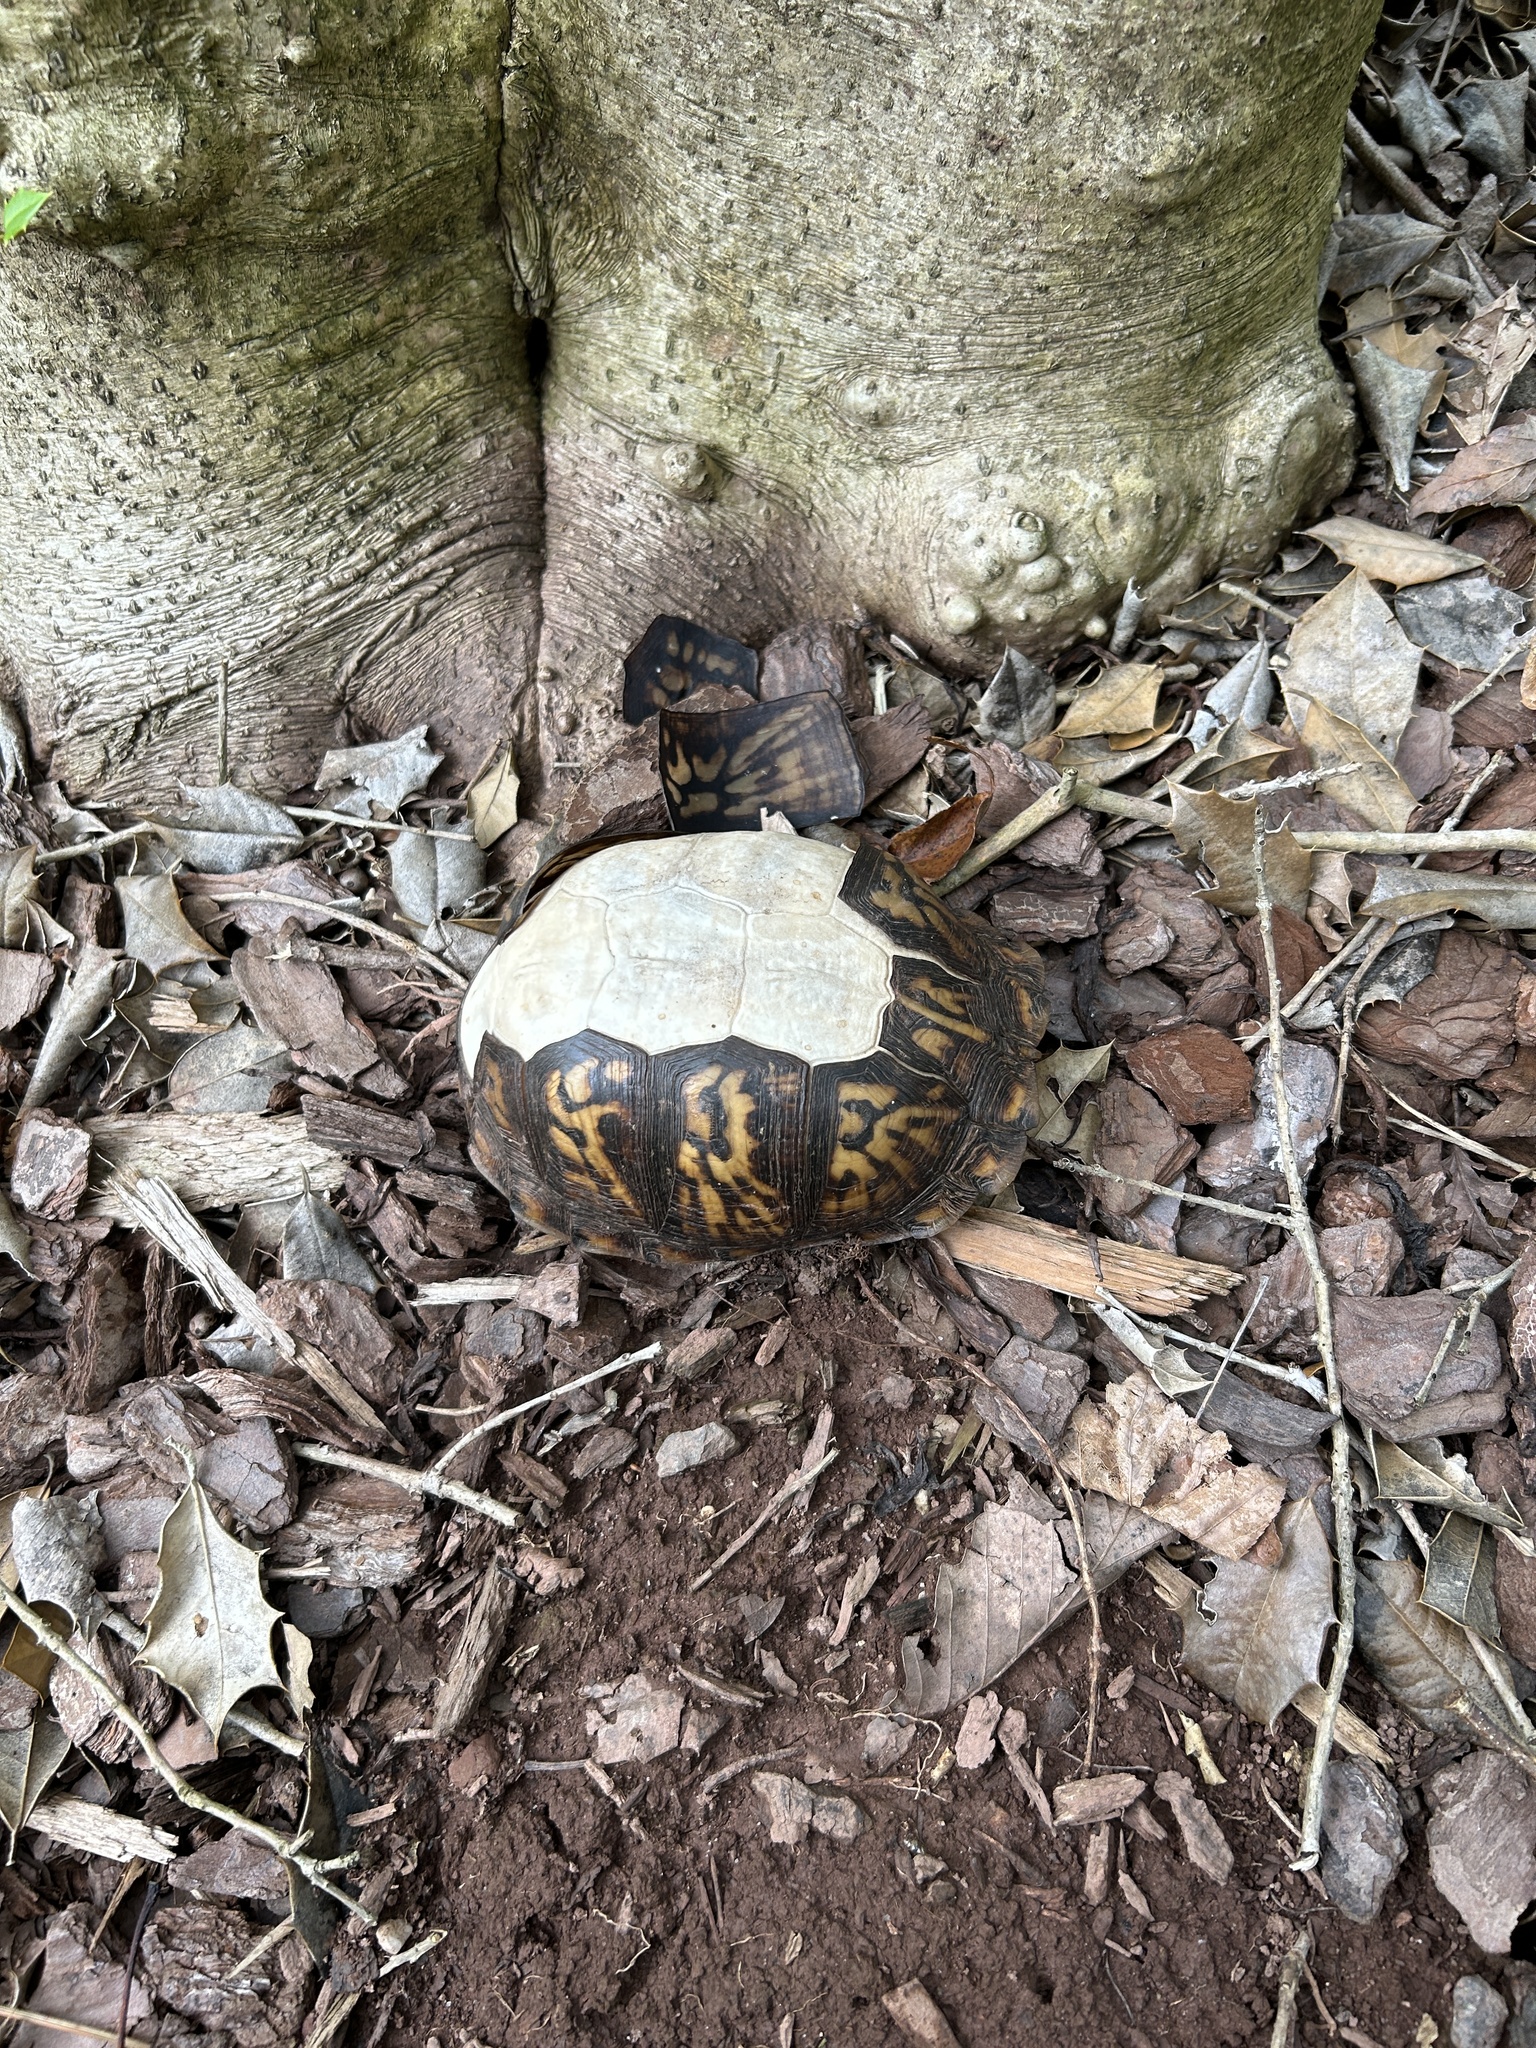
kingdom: Animalia
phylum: Chordata
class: Testudines
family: Emydidae
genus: Terrapene
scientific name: Terrapene carolina
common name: Common box turtle
